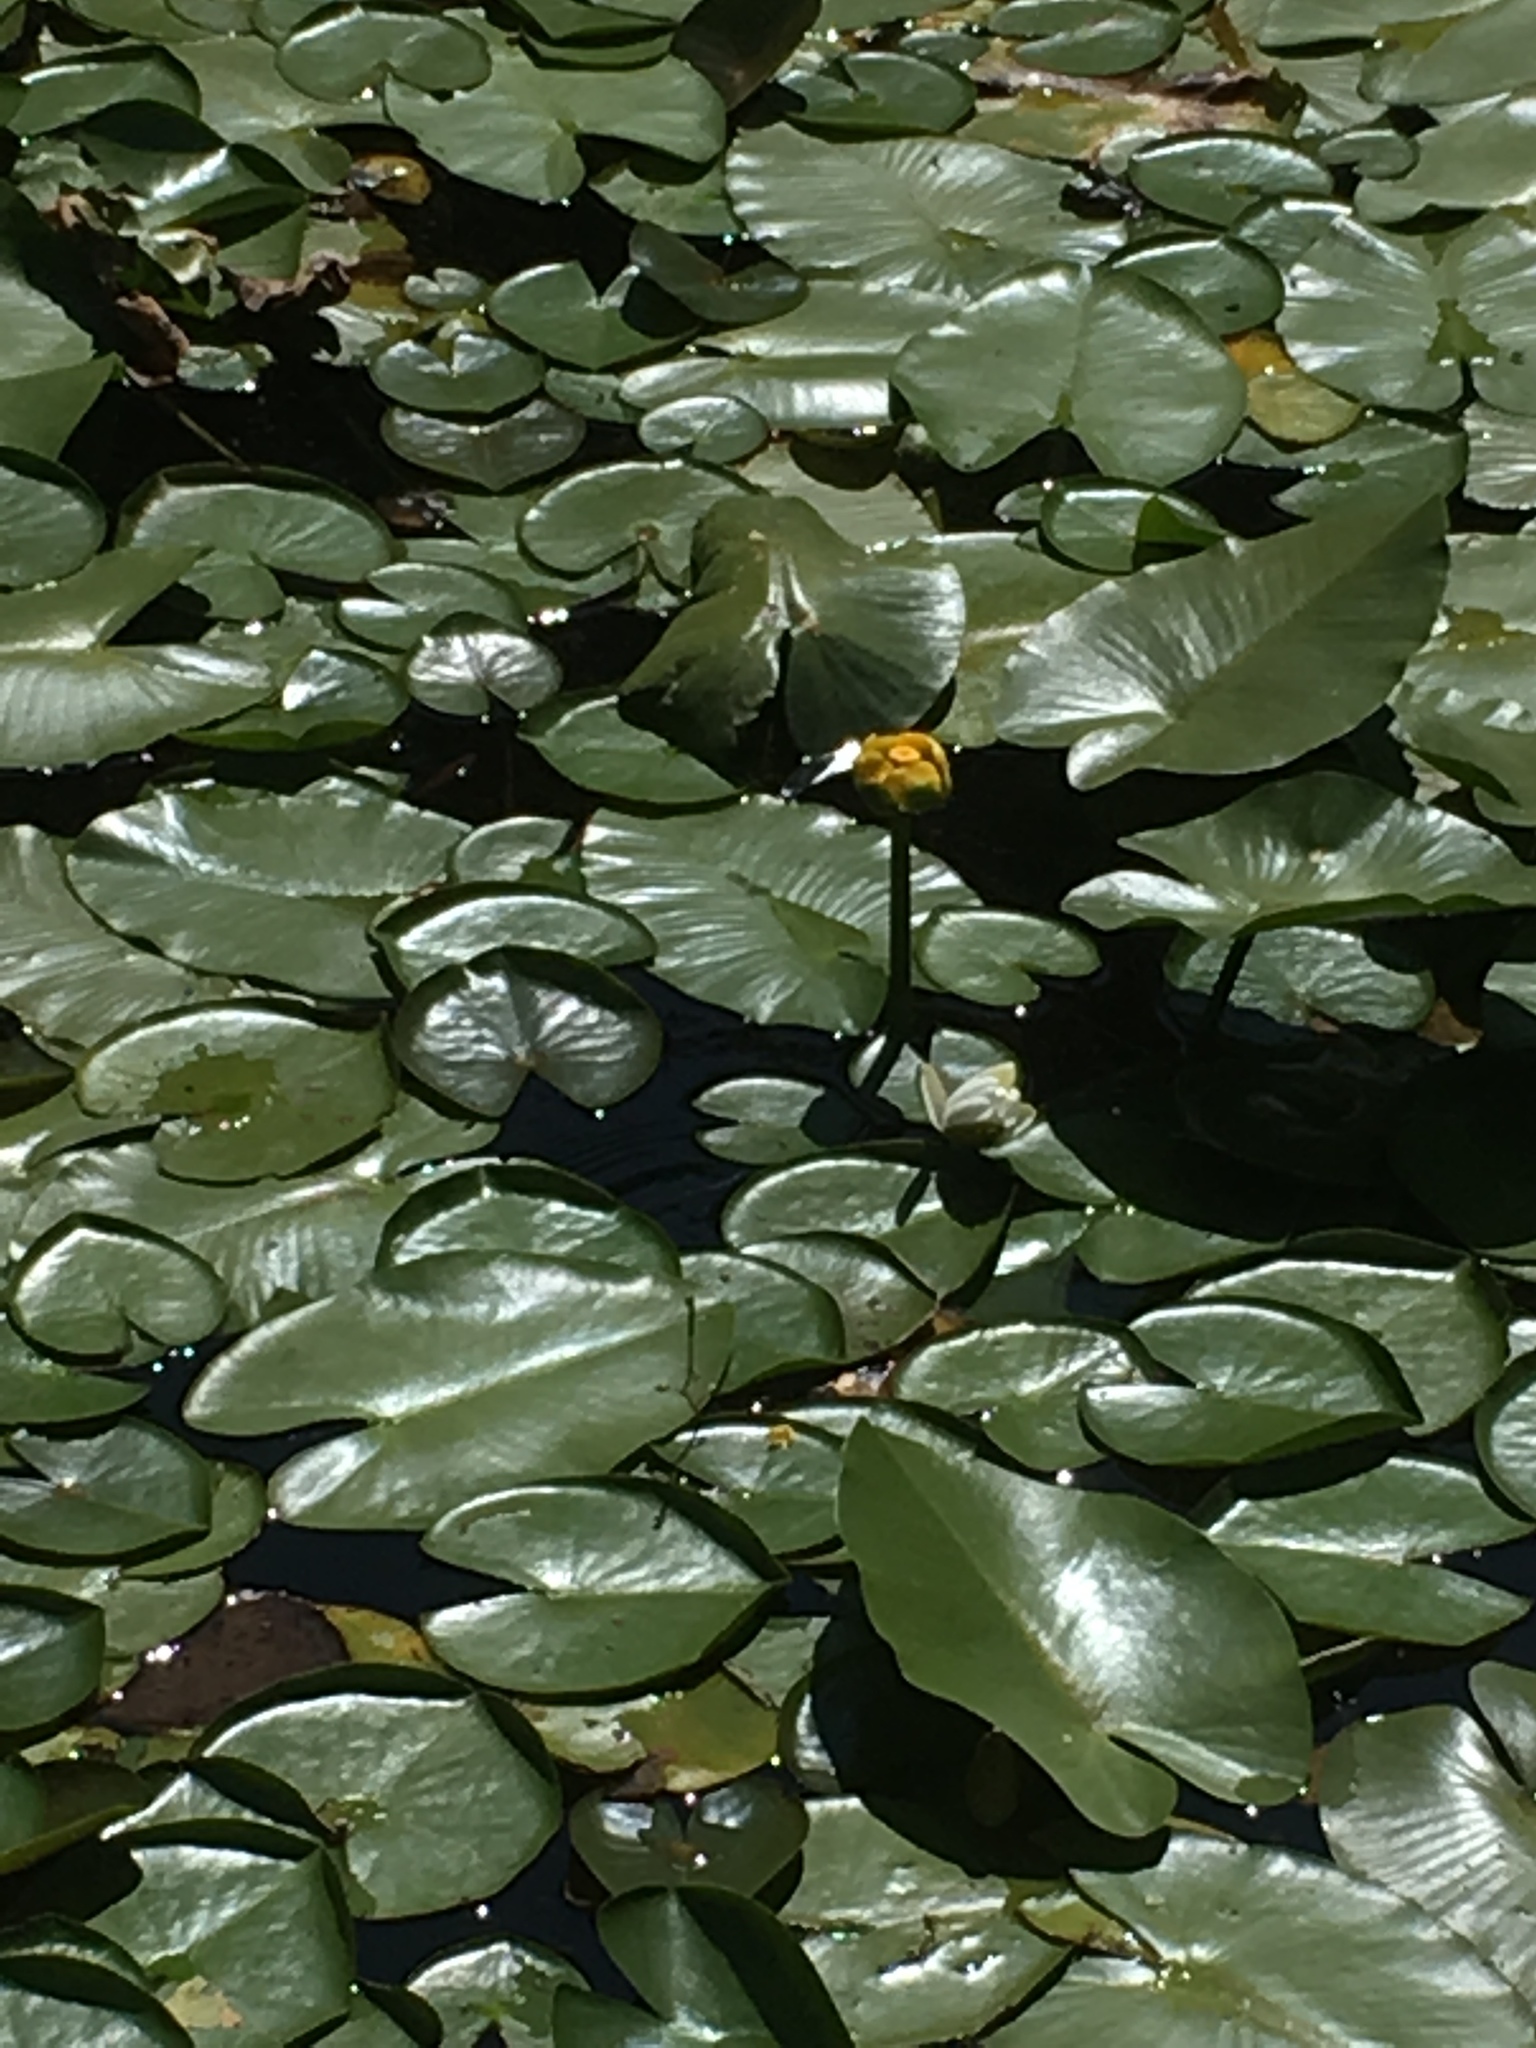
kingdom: Plantae
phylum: Tracheophyta
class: Magnoliopsida
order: Nymphaeales
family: Nymphaeaceae
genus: Nuphar
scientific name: Nuphar variegata
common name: Beaver-root
